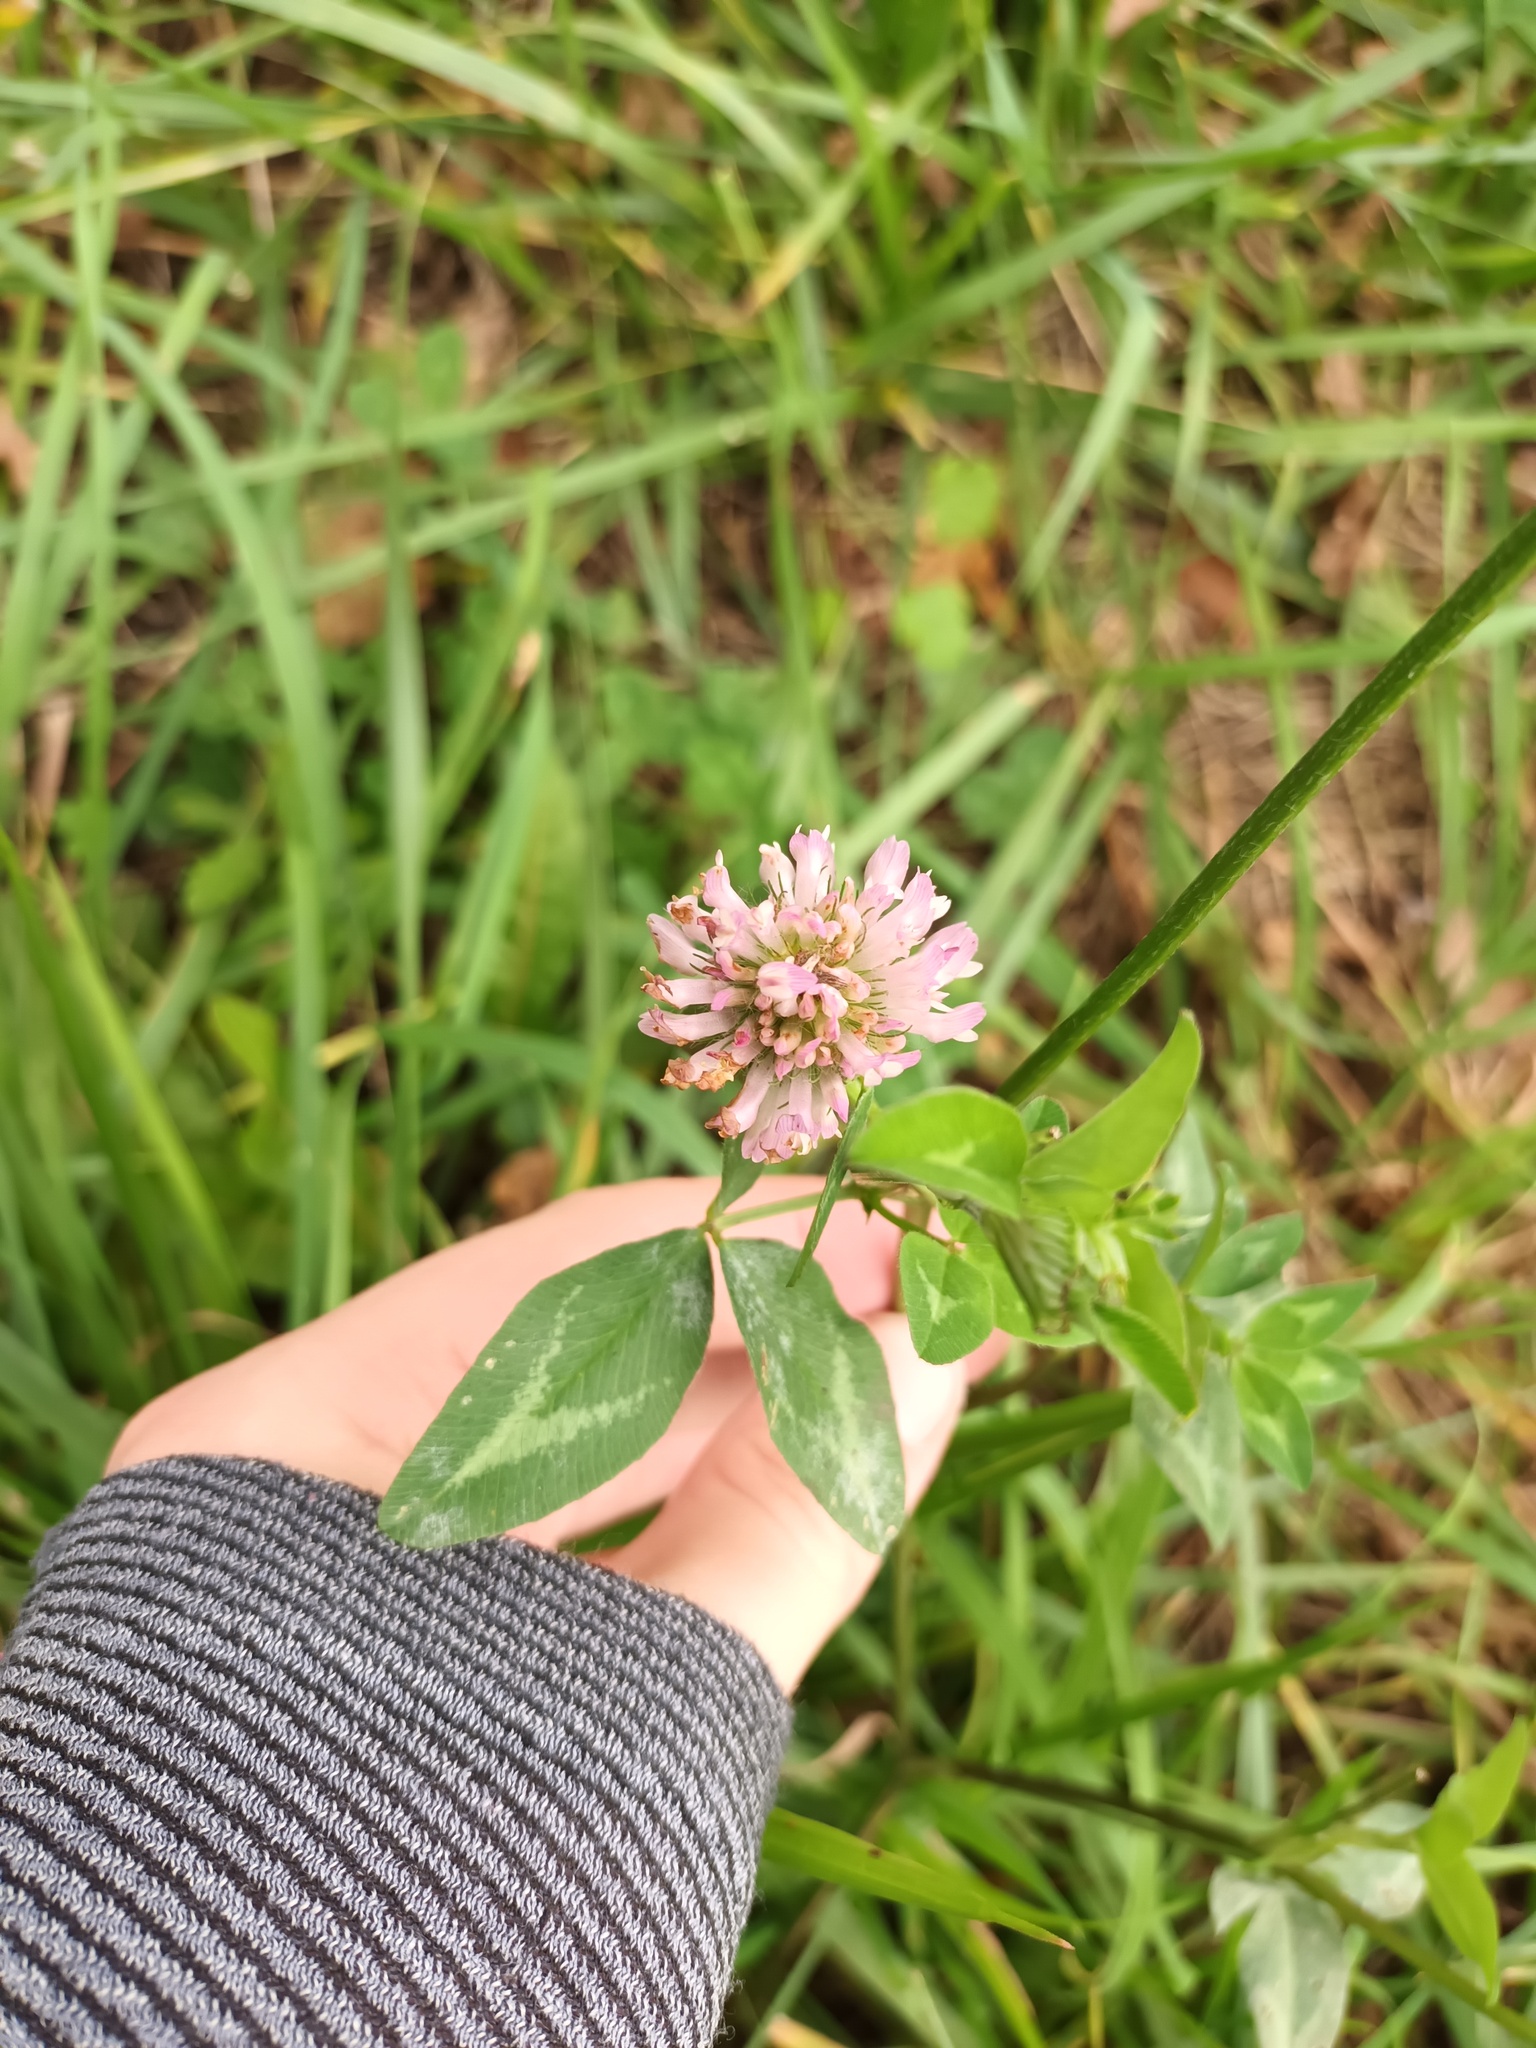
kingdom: Plantae
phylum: Tracheophyta
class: Magnoliopsida
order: Fabales
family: Fabaceae
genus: Trifolium
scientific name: Trifolium pratense
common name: Red clover
